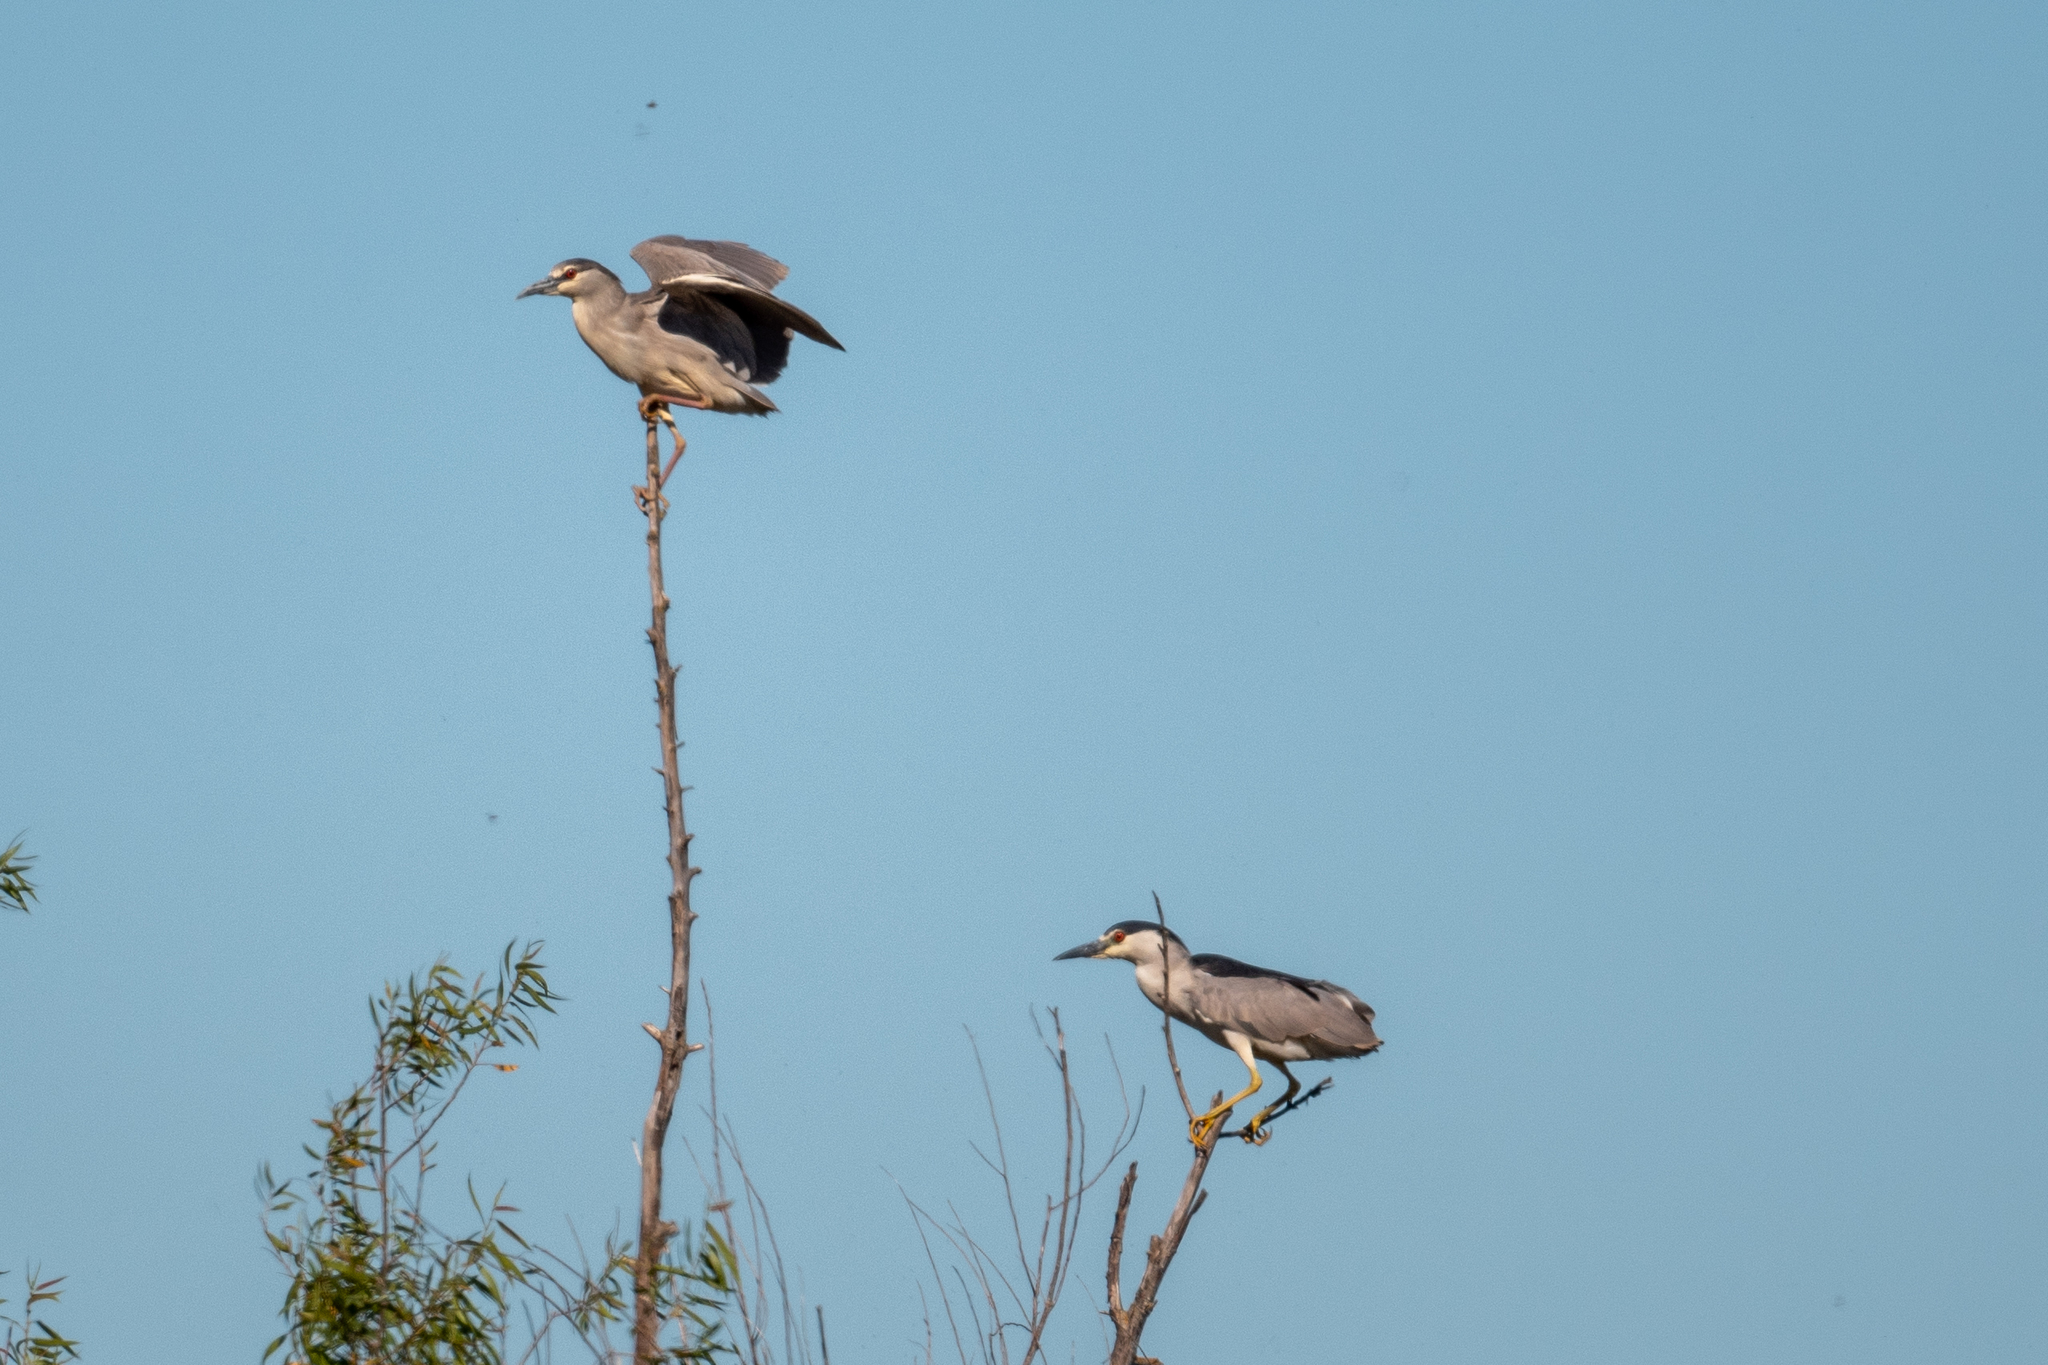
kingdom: Animalia
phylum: Chordata
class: Aves
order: Pelecaniformes
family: Ardeidae
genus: Nycticorax
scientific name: Nycticorax nycticorax
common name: Black-crowned night heron
